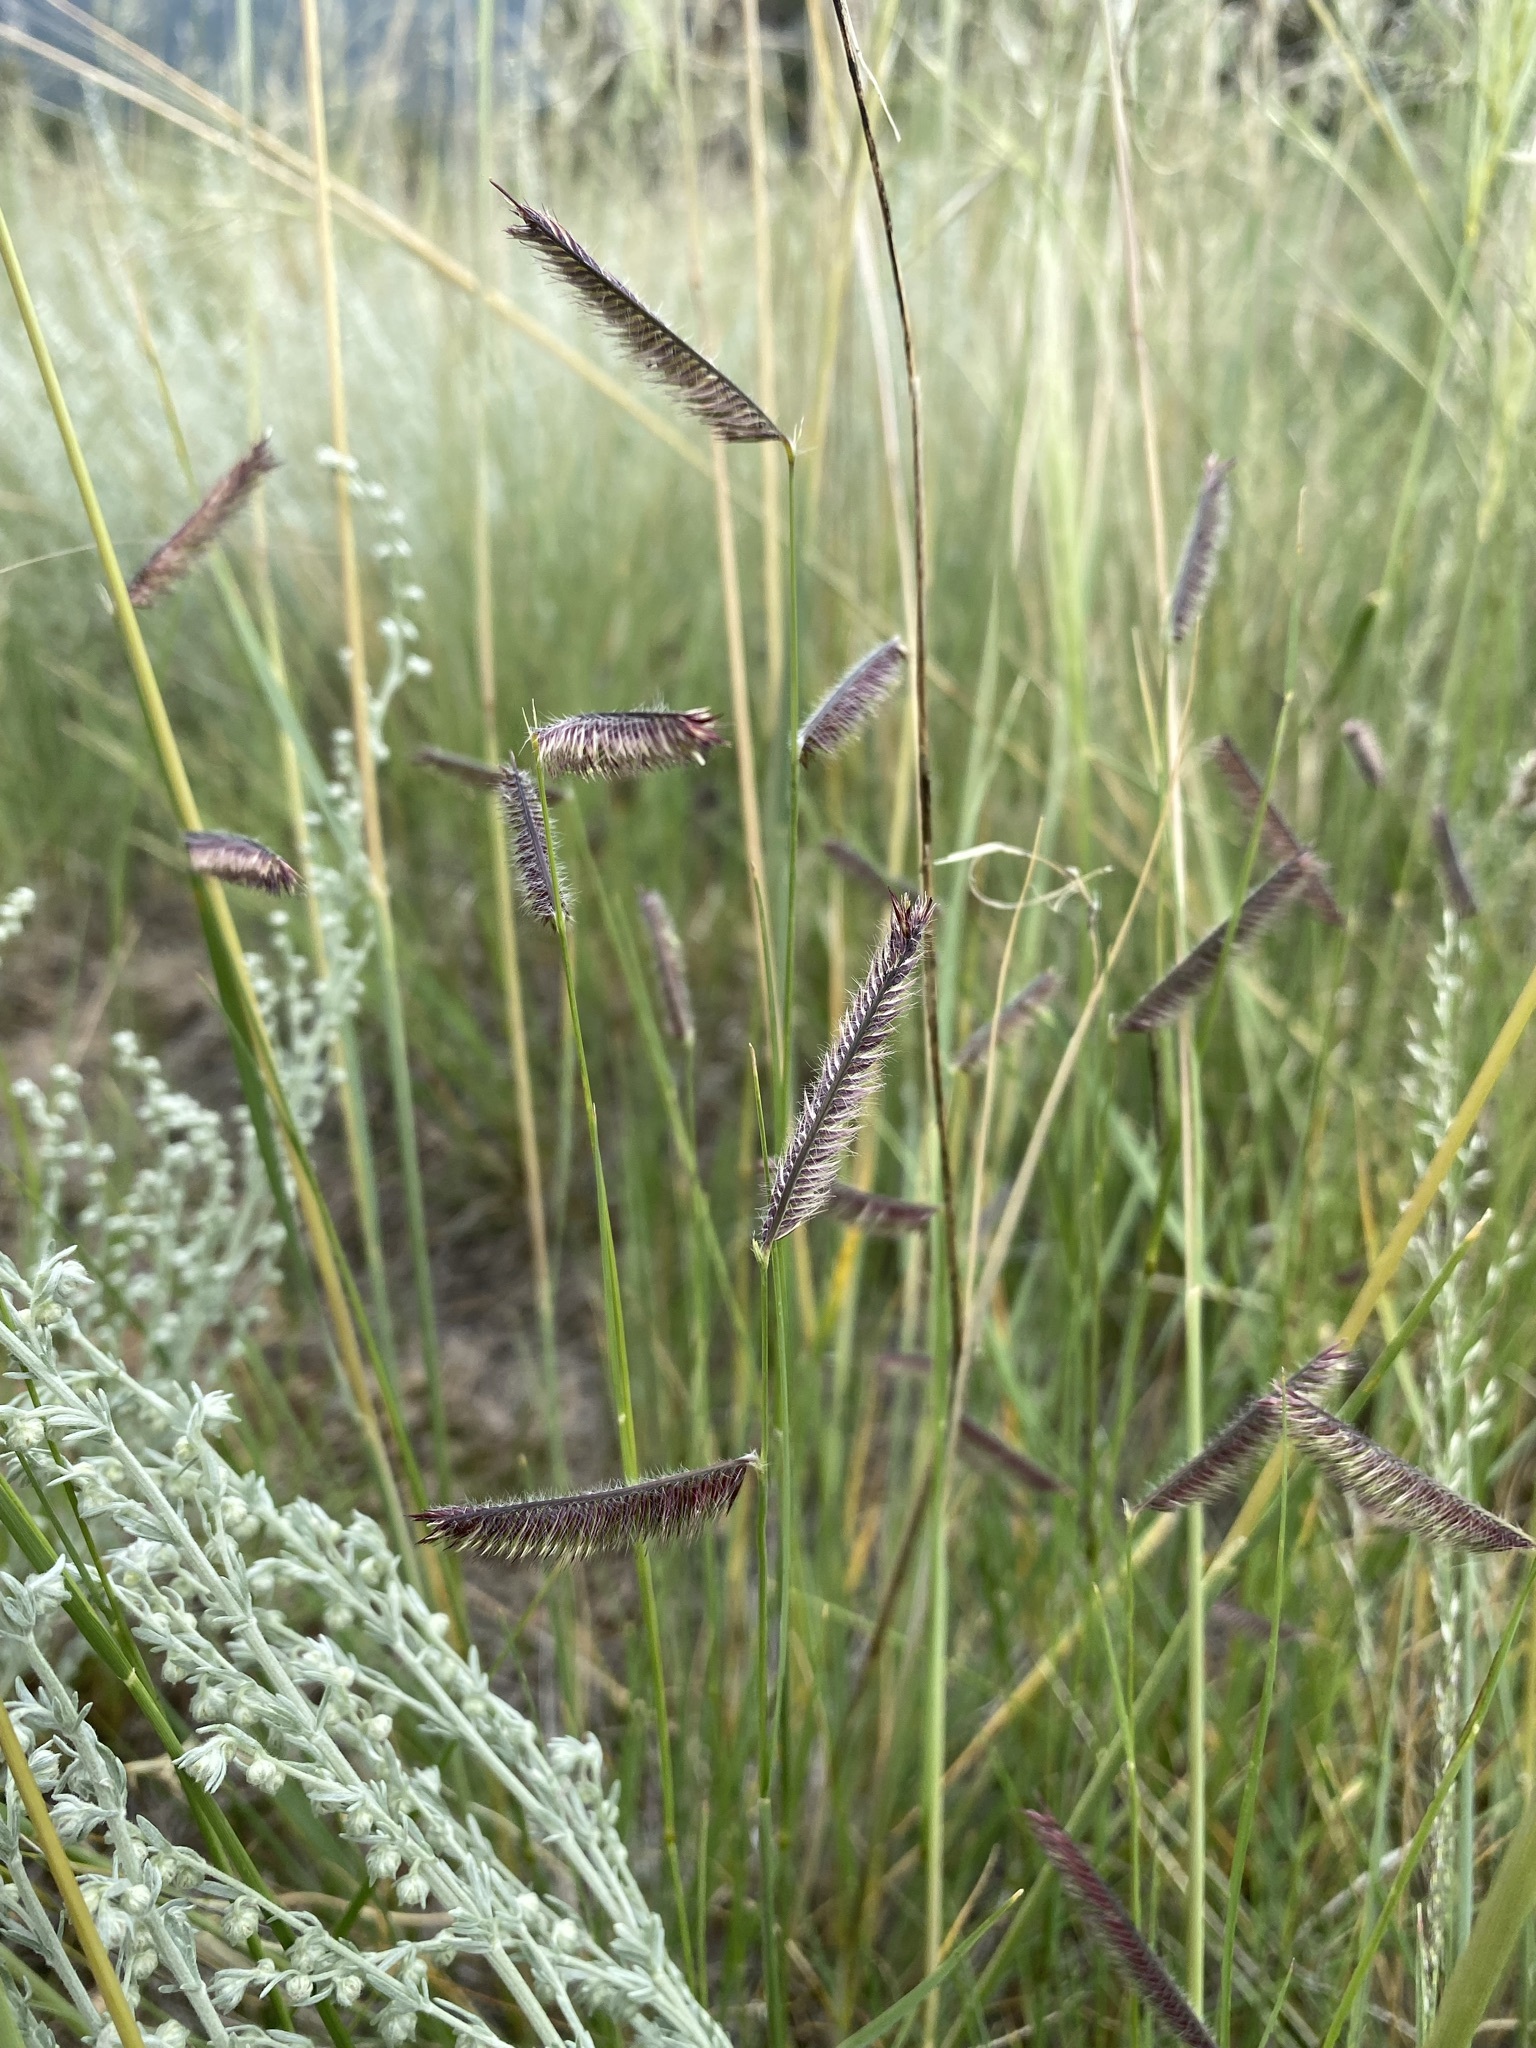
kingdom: Plantae
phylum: Tracheophyta
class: Liliopsida
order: Poales
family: Poaceae
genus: Bouteloua
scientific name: Bouteloua gracilis
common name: Blue grama
